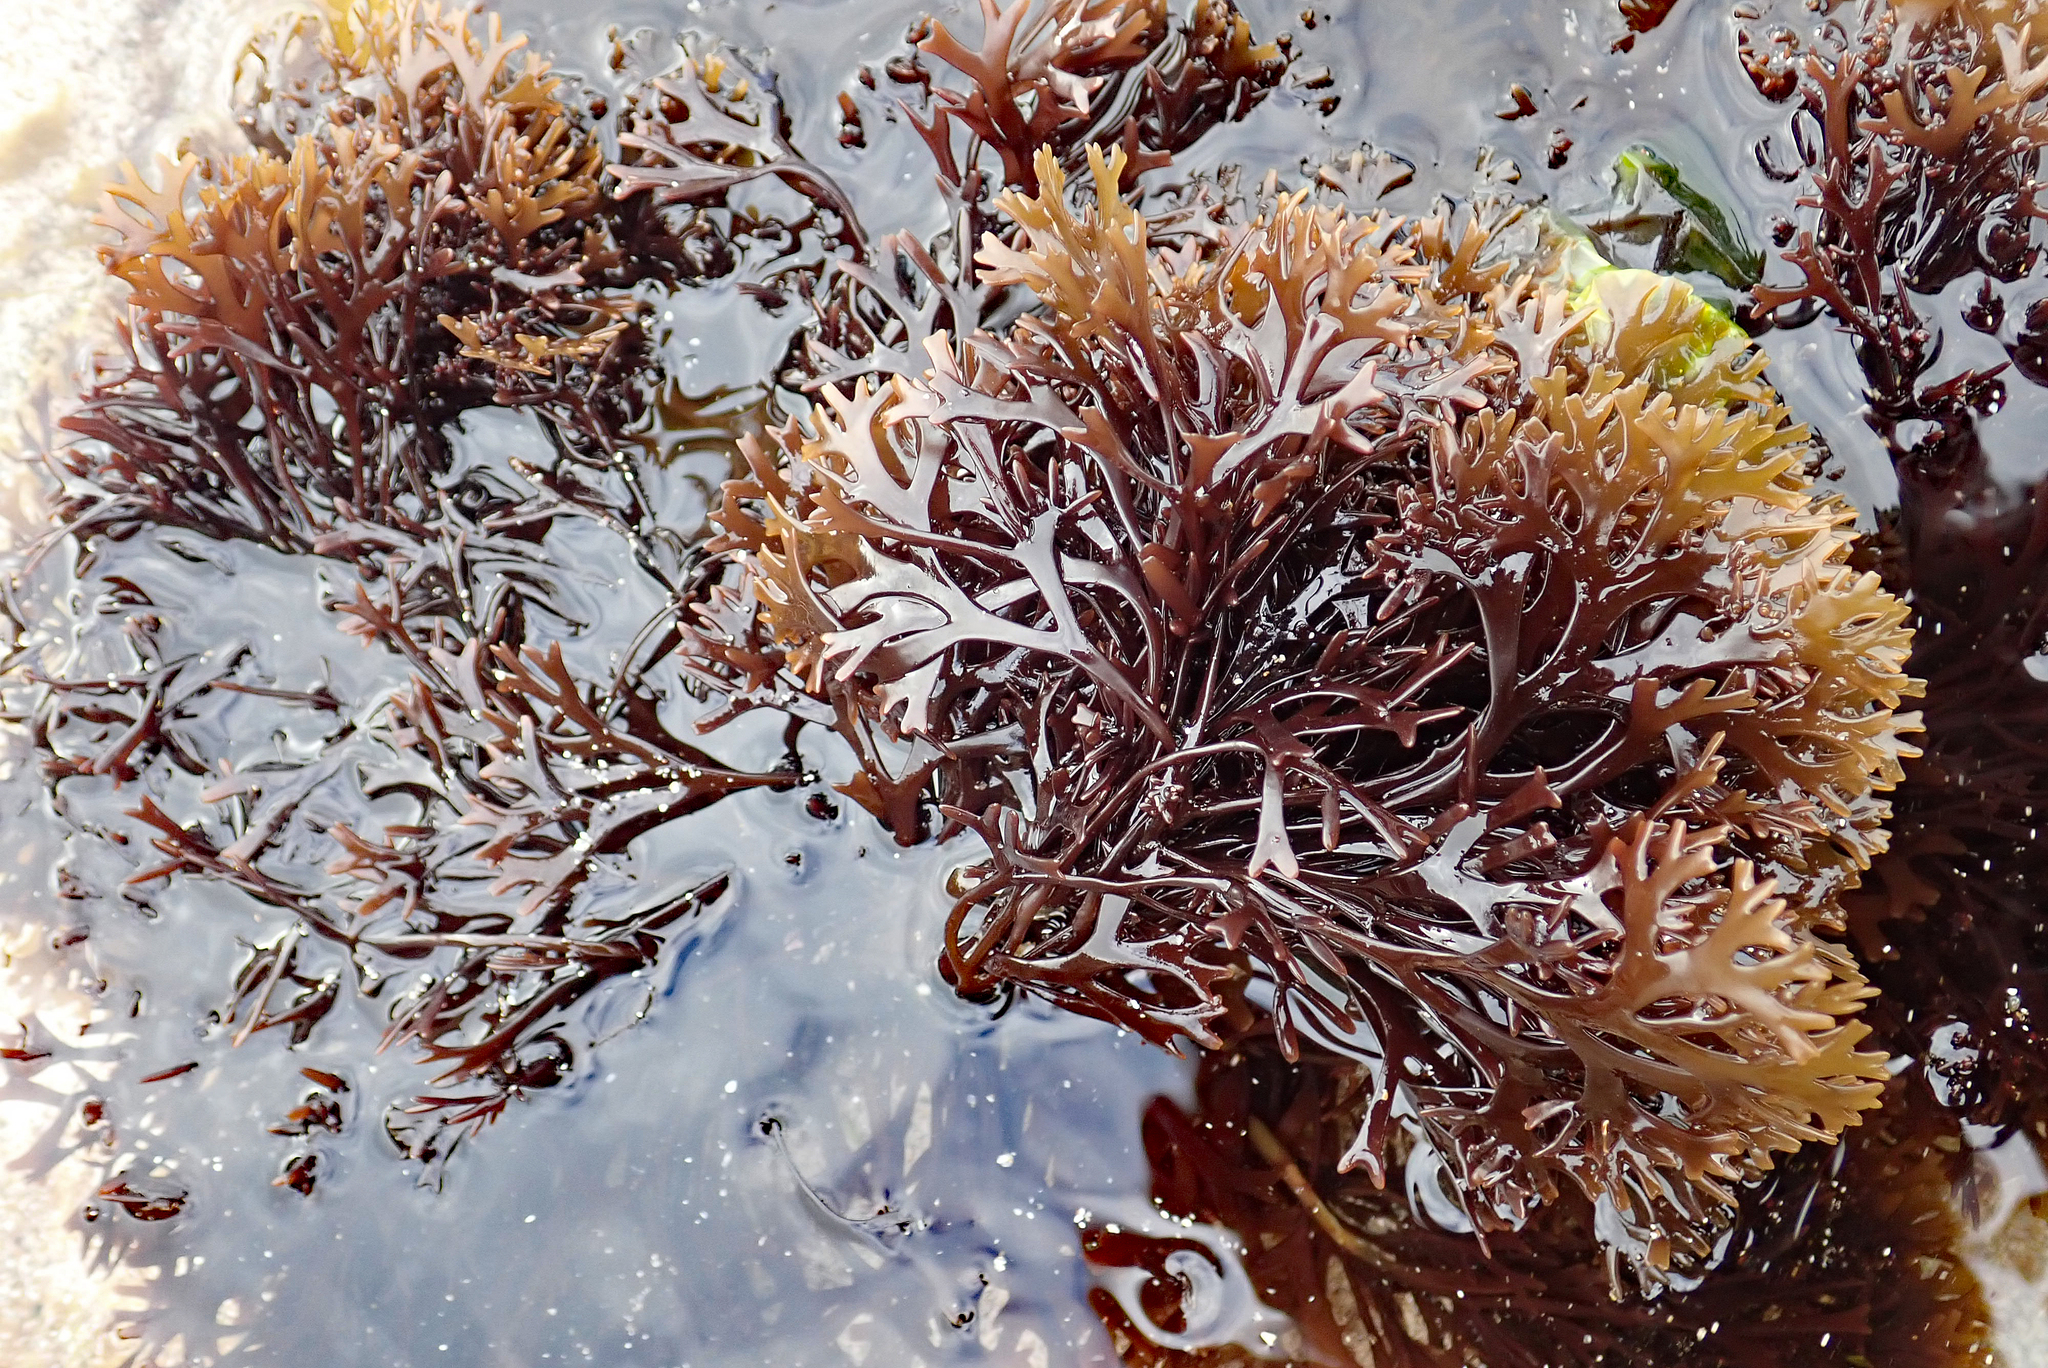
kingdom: Plantae
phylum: Rhodophyta
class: Florideophyceae
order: Gigartinales
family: Gigartinaceae
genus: Gigartina
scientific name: Gigartina clavifera
